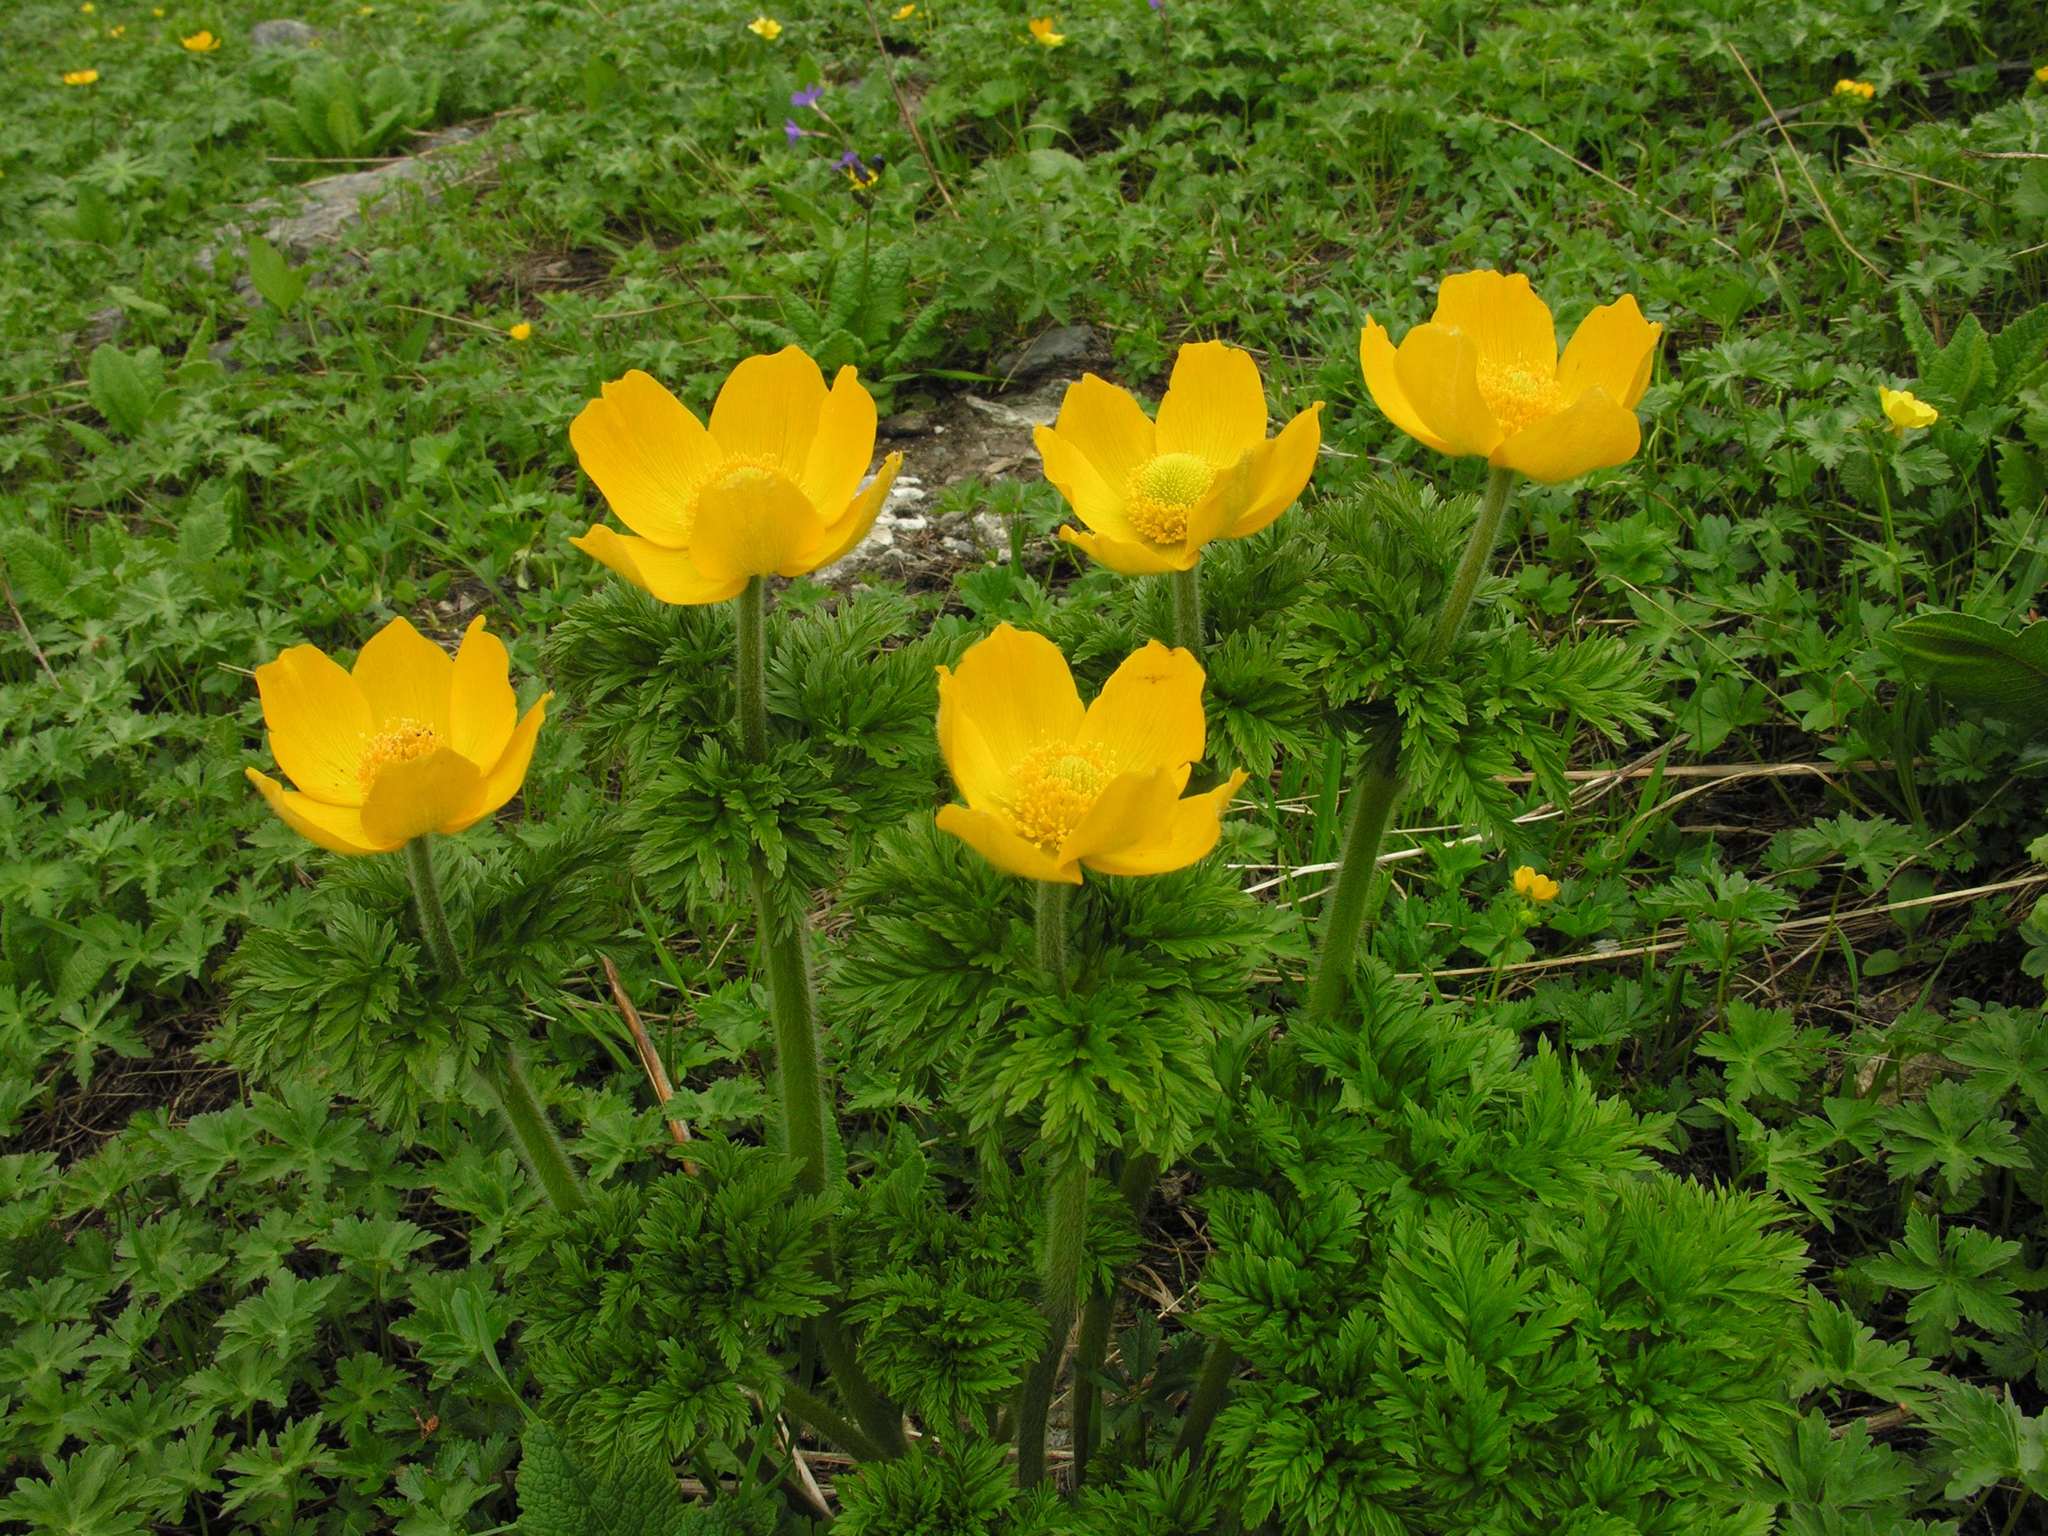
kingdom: Plantae
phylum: Tracheophyta
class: Magnoliopsida
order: Ranunculales
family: Ranunculaceae
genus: Pulsatilla
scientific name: Pulsatilla aurea
